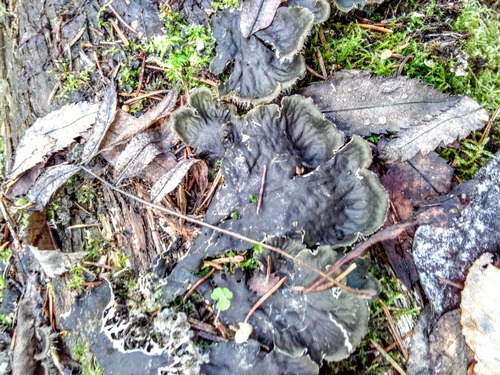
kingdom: Fungi
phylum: Ascomycota
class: Lecanoromycetes
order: Peltigerales
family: Peltigeraceae
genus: Peltigera
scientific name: Peltigera
